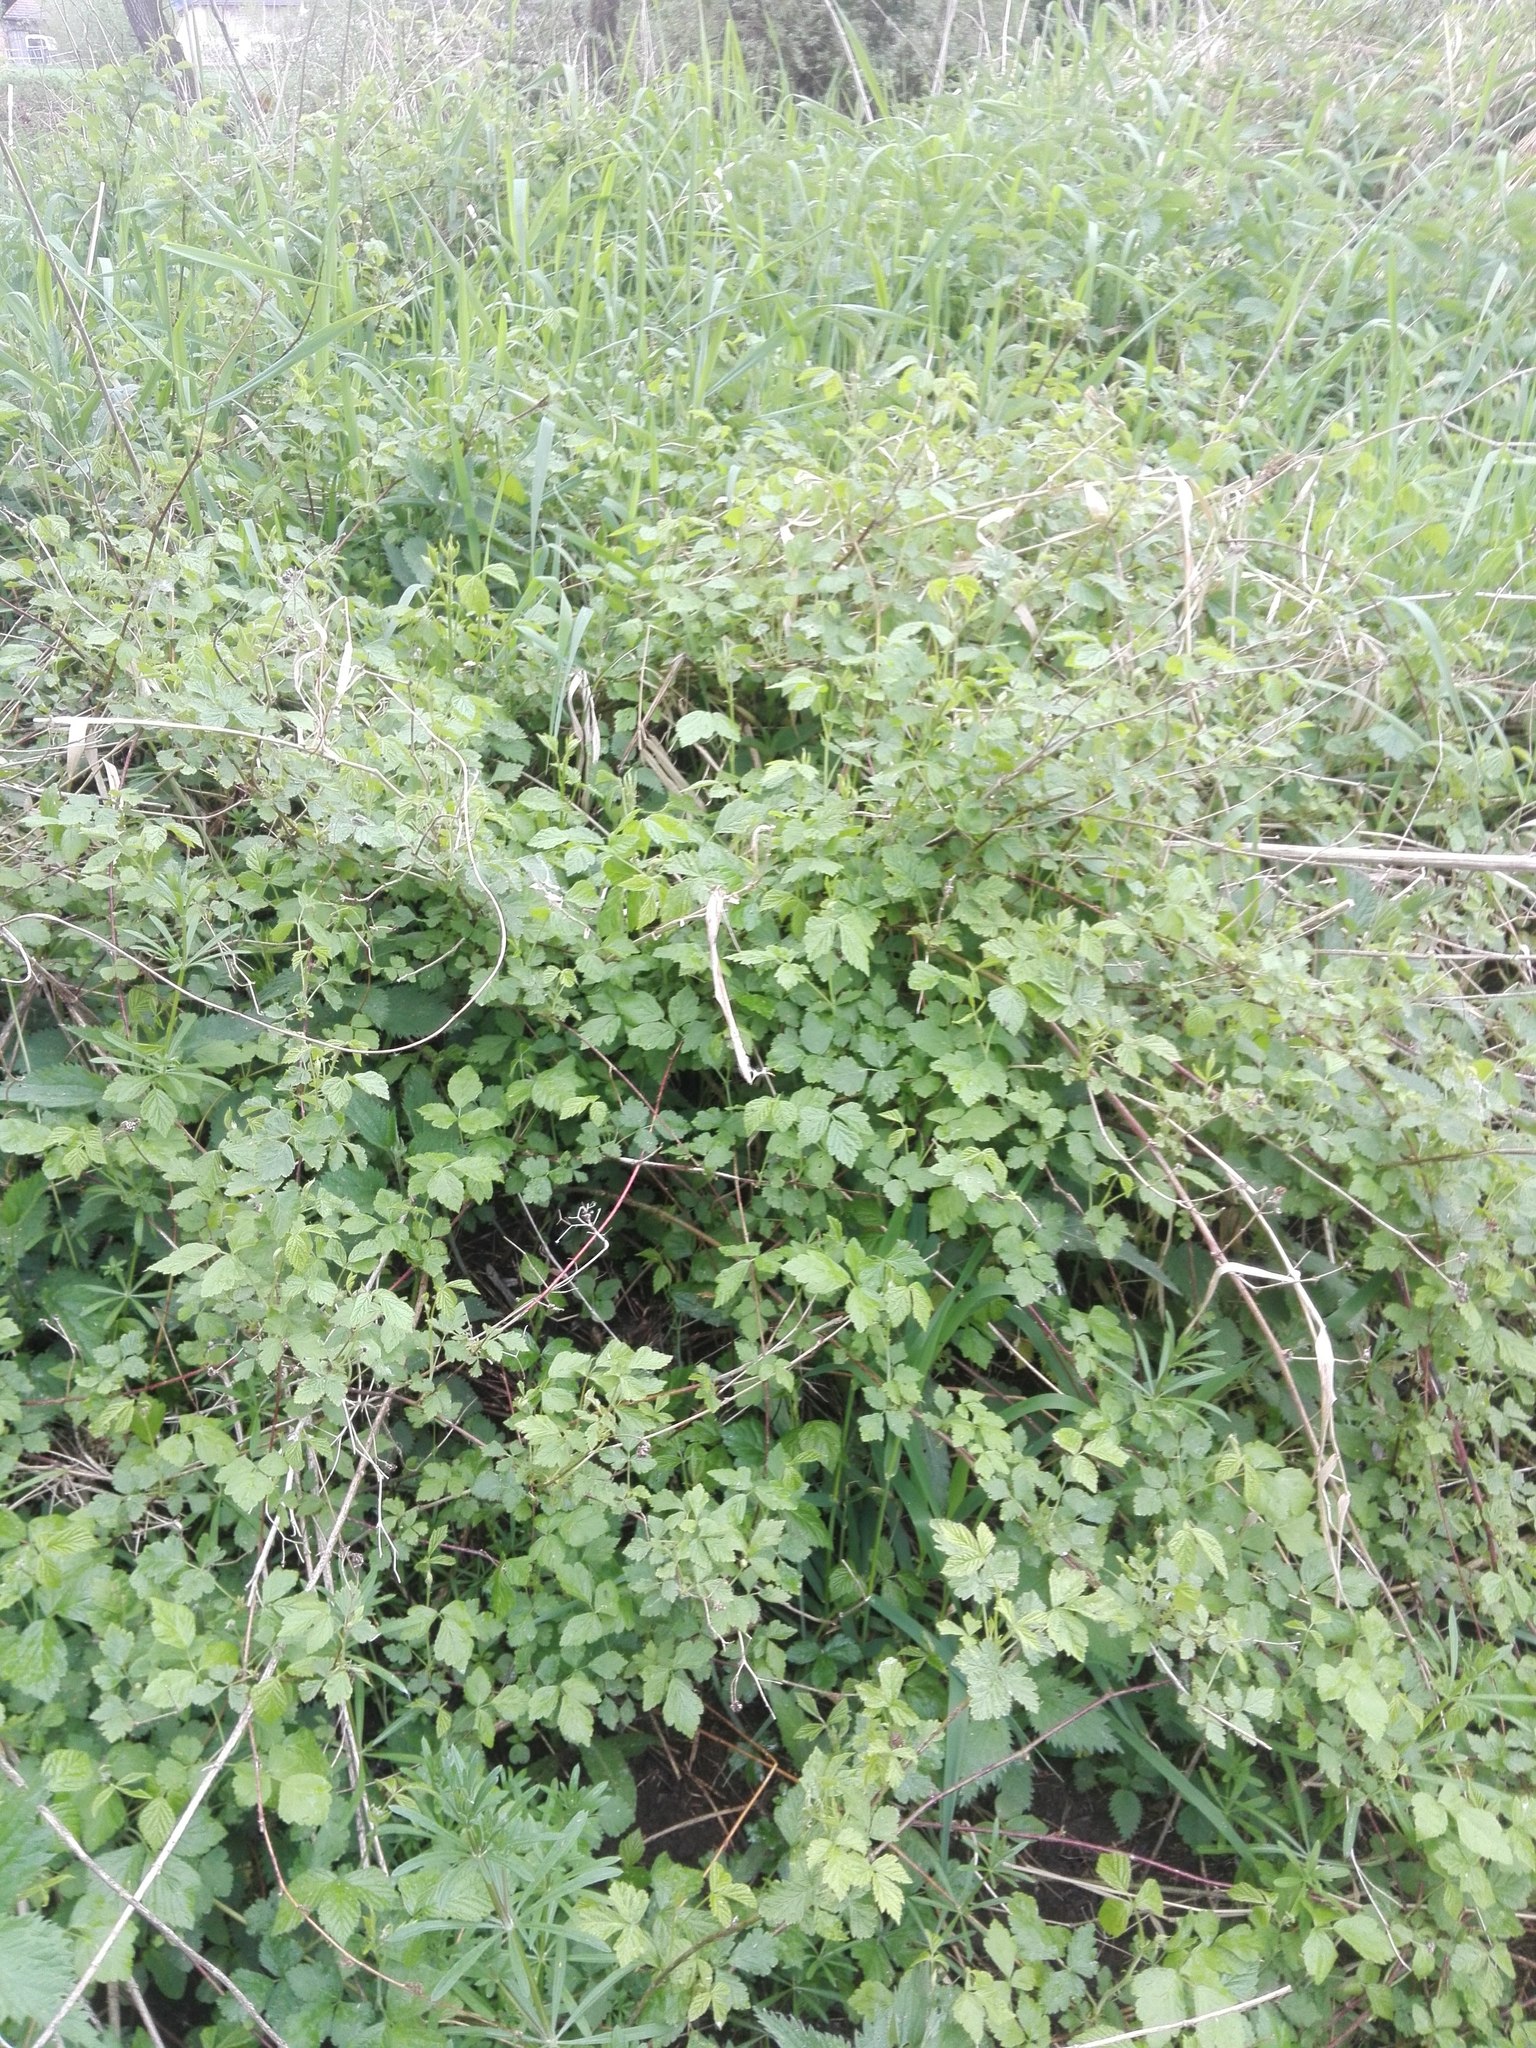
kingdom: Plantae
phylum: Tracheophyta
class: Magnoliopsida
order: Rosales
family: Rosaceae
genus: Rubus
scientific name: Rubus caesius
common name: Dewberry
